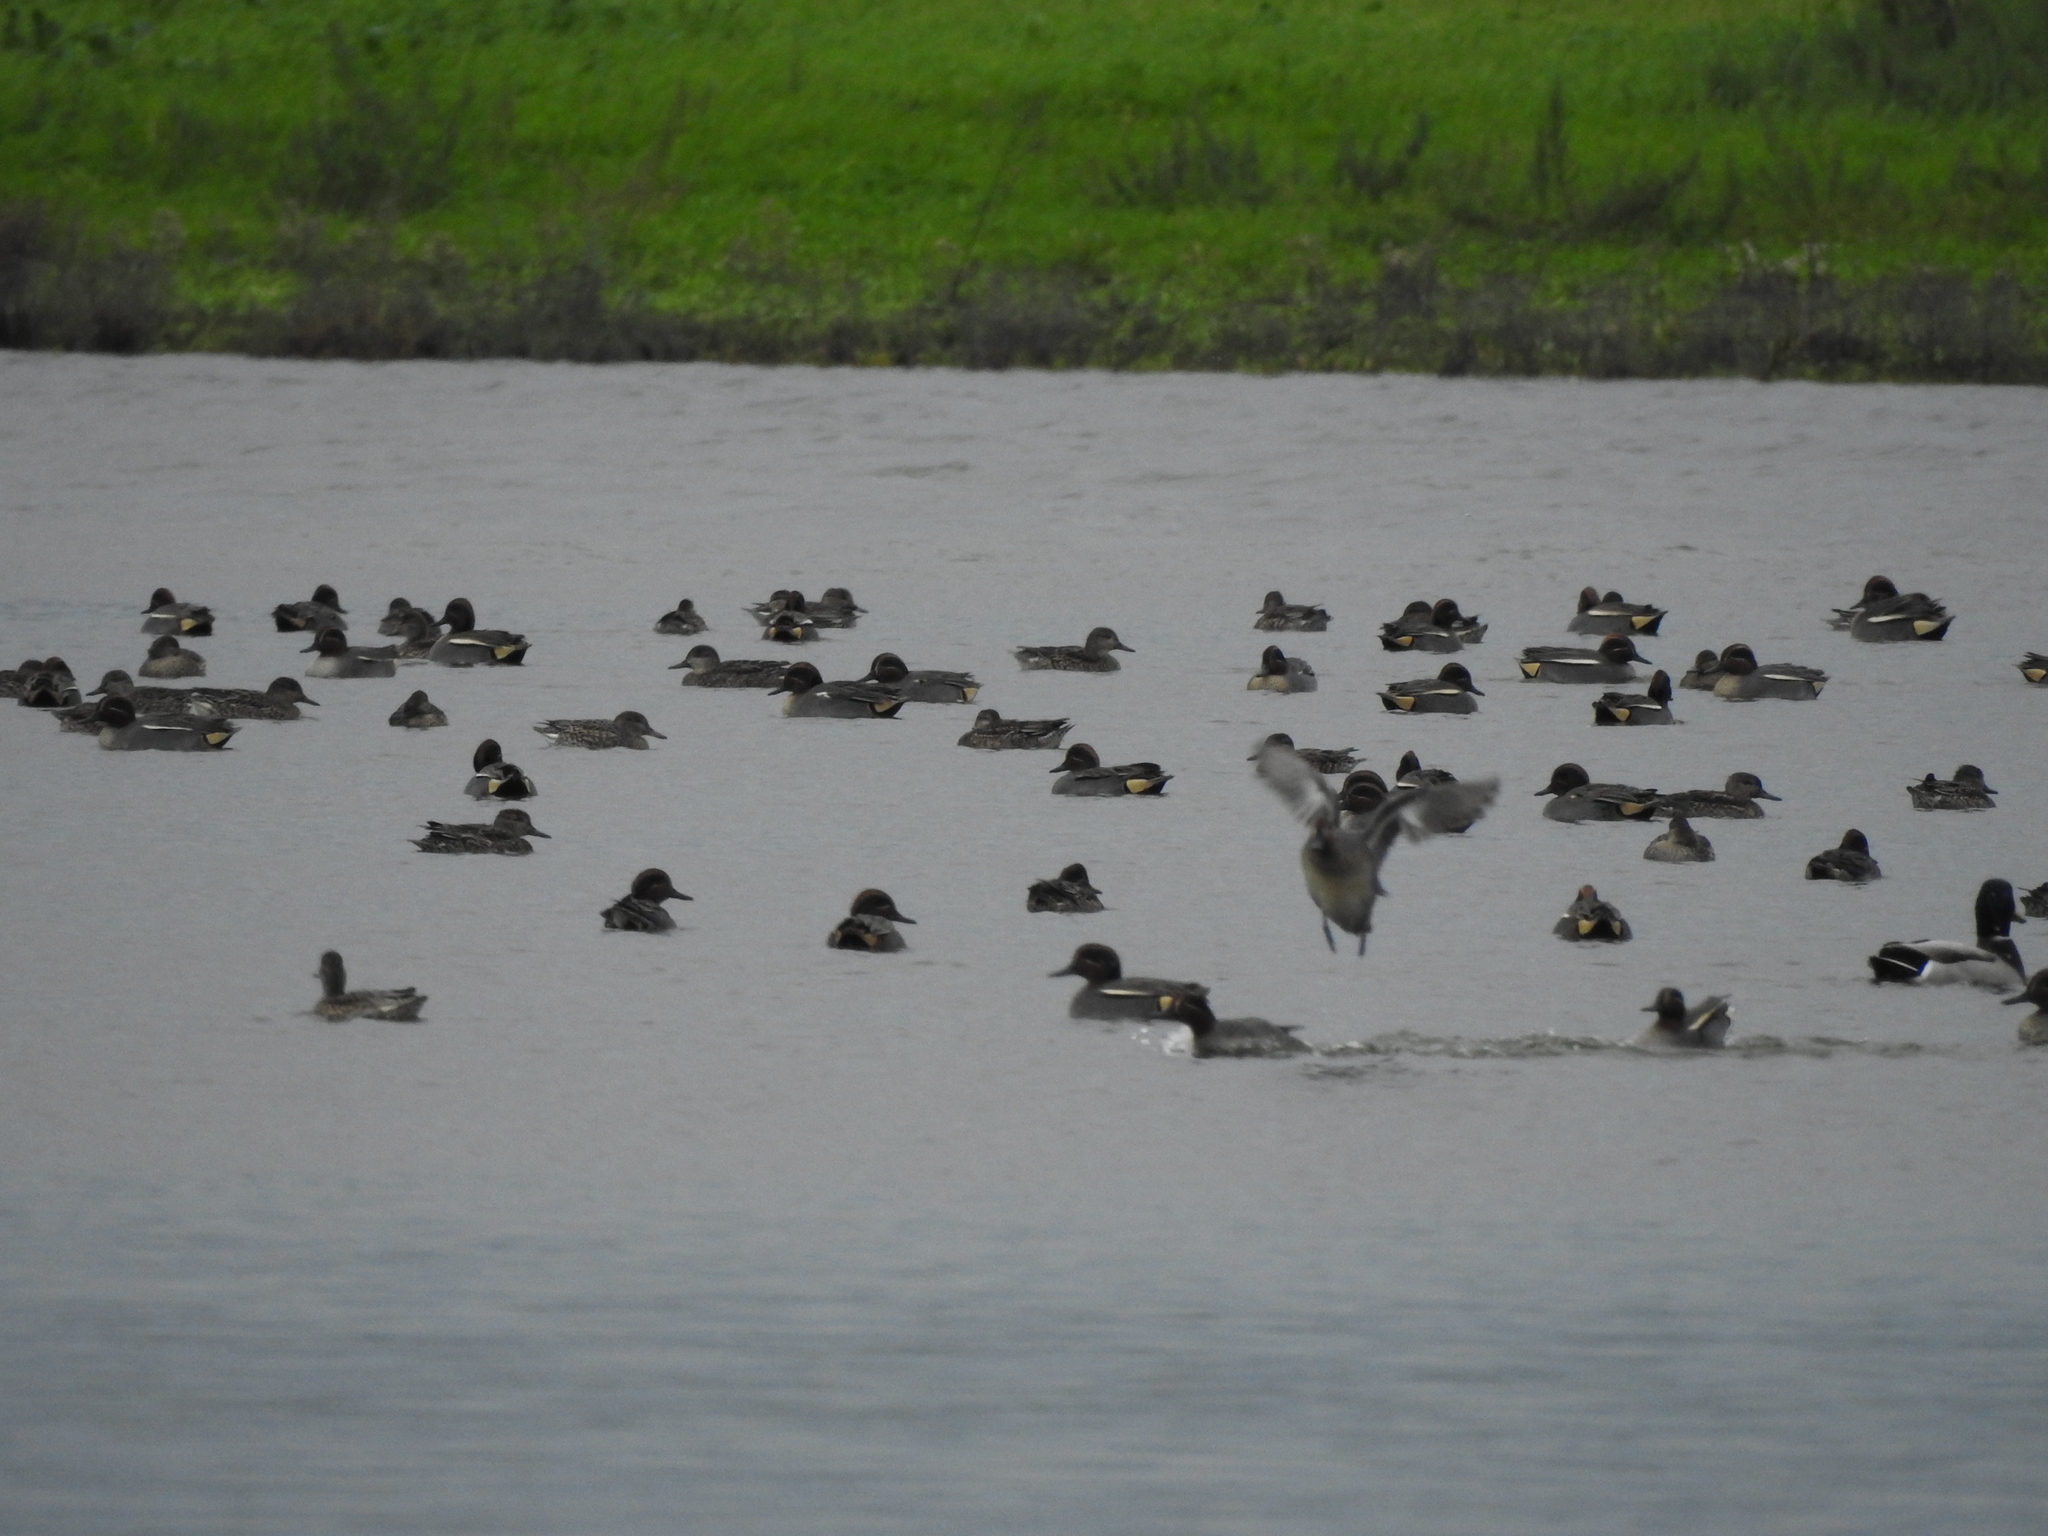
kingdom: Animalia
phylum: Chordata
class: Aves
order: Anseriformes
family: Anatidae
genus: Anas
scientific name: Anas crecca
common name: Eurasian teal
